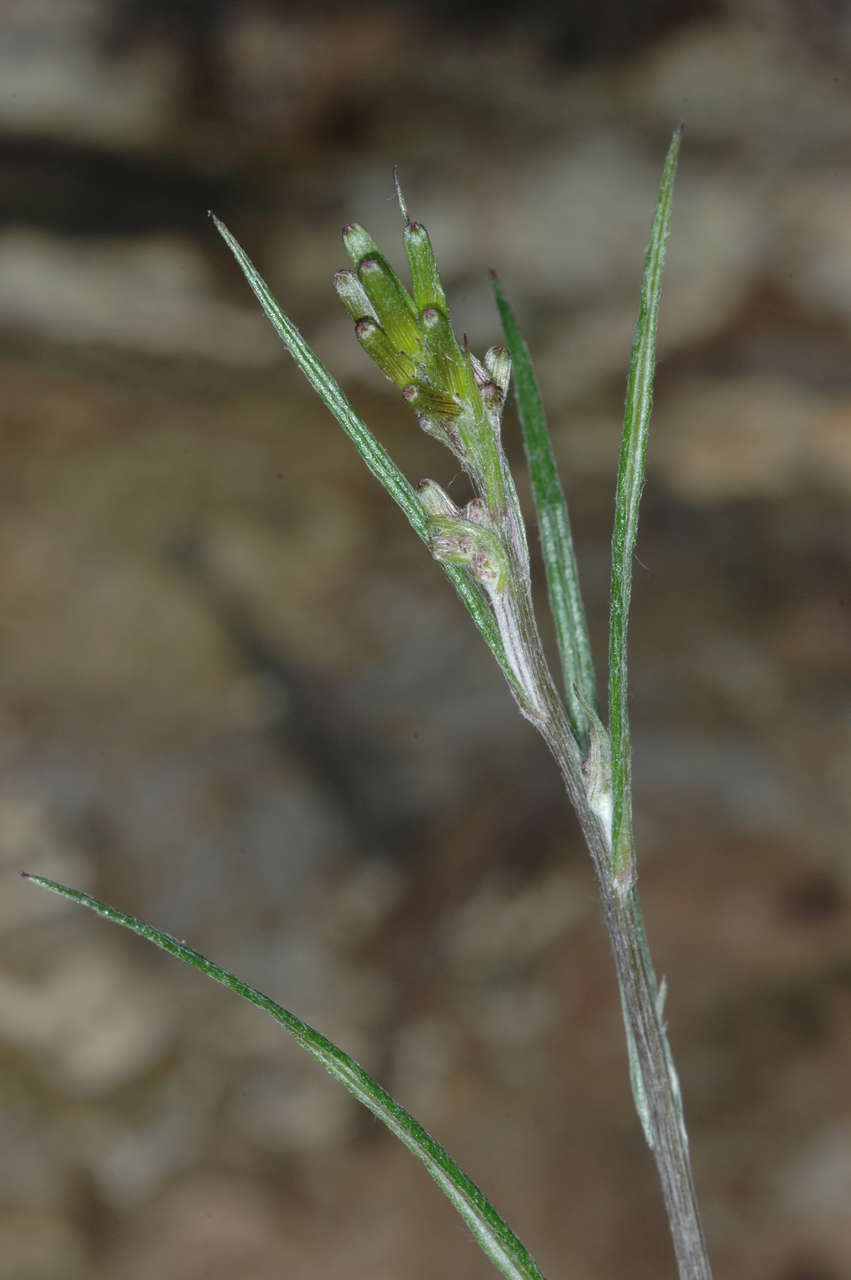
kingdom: Plantae
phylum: Tracheophyta
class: Magnoliopsida
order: Asterales
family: Asteraceae
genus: Senecio
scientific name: Senecio phelleus
